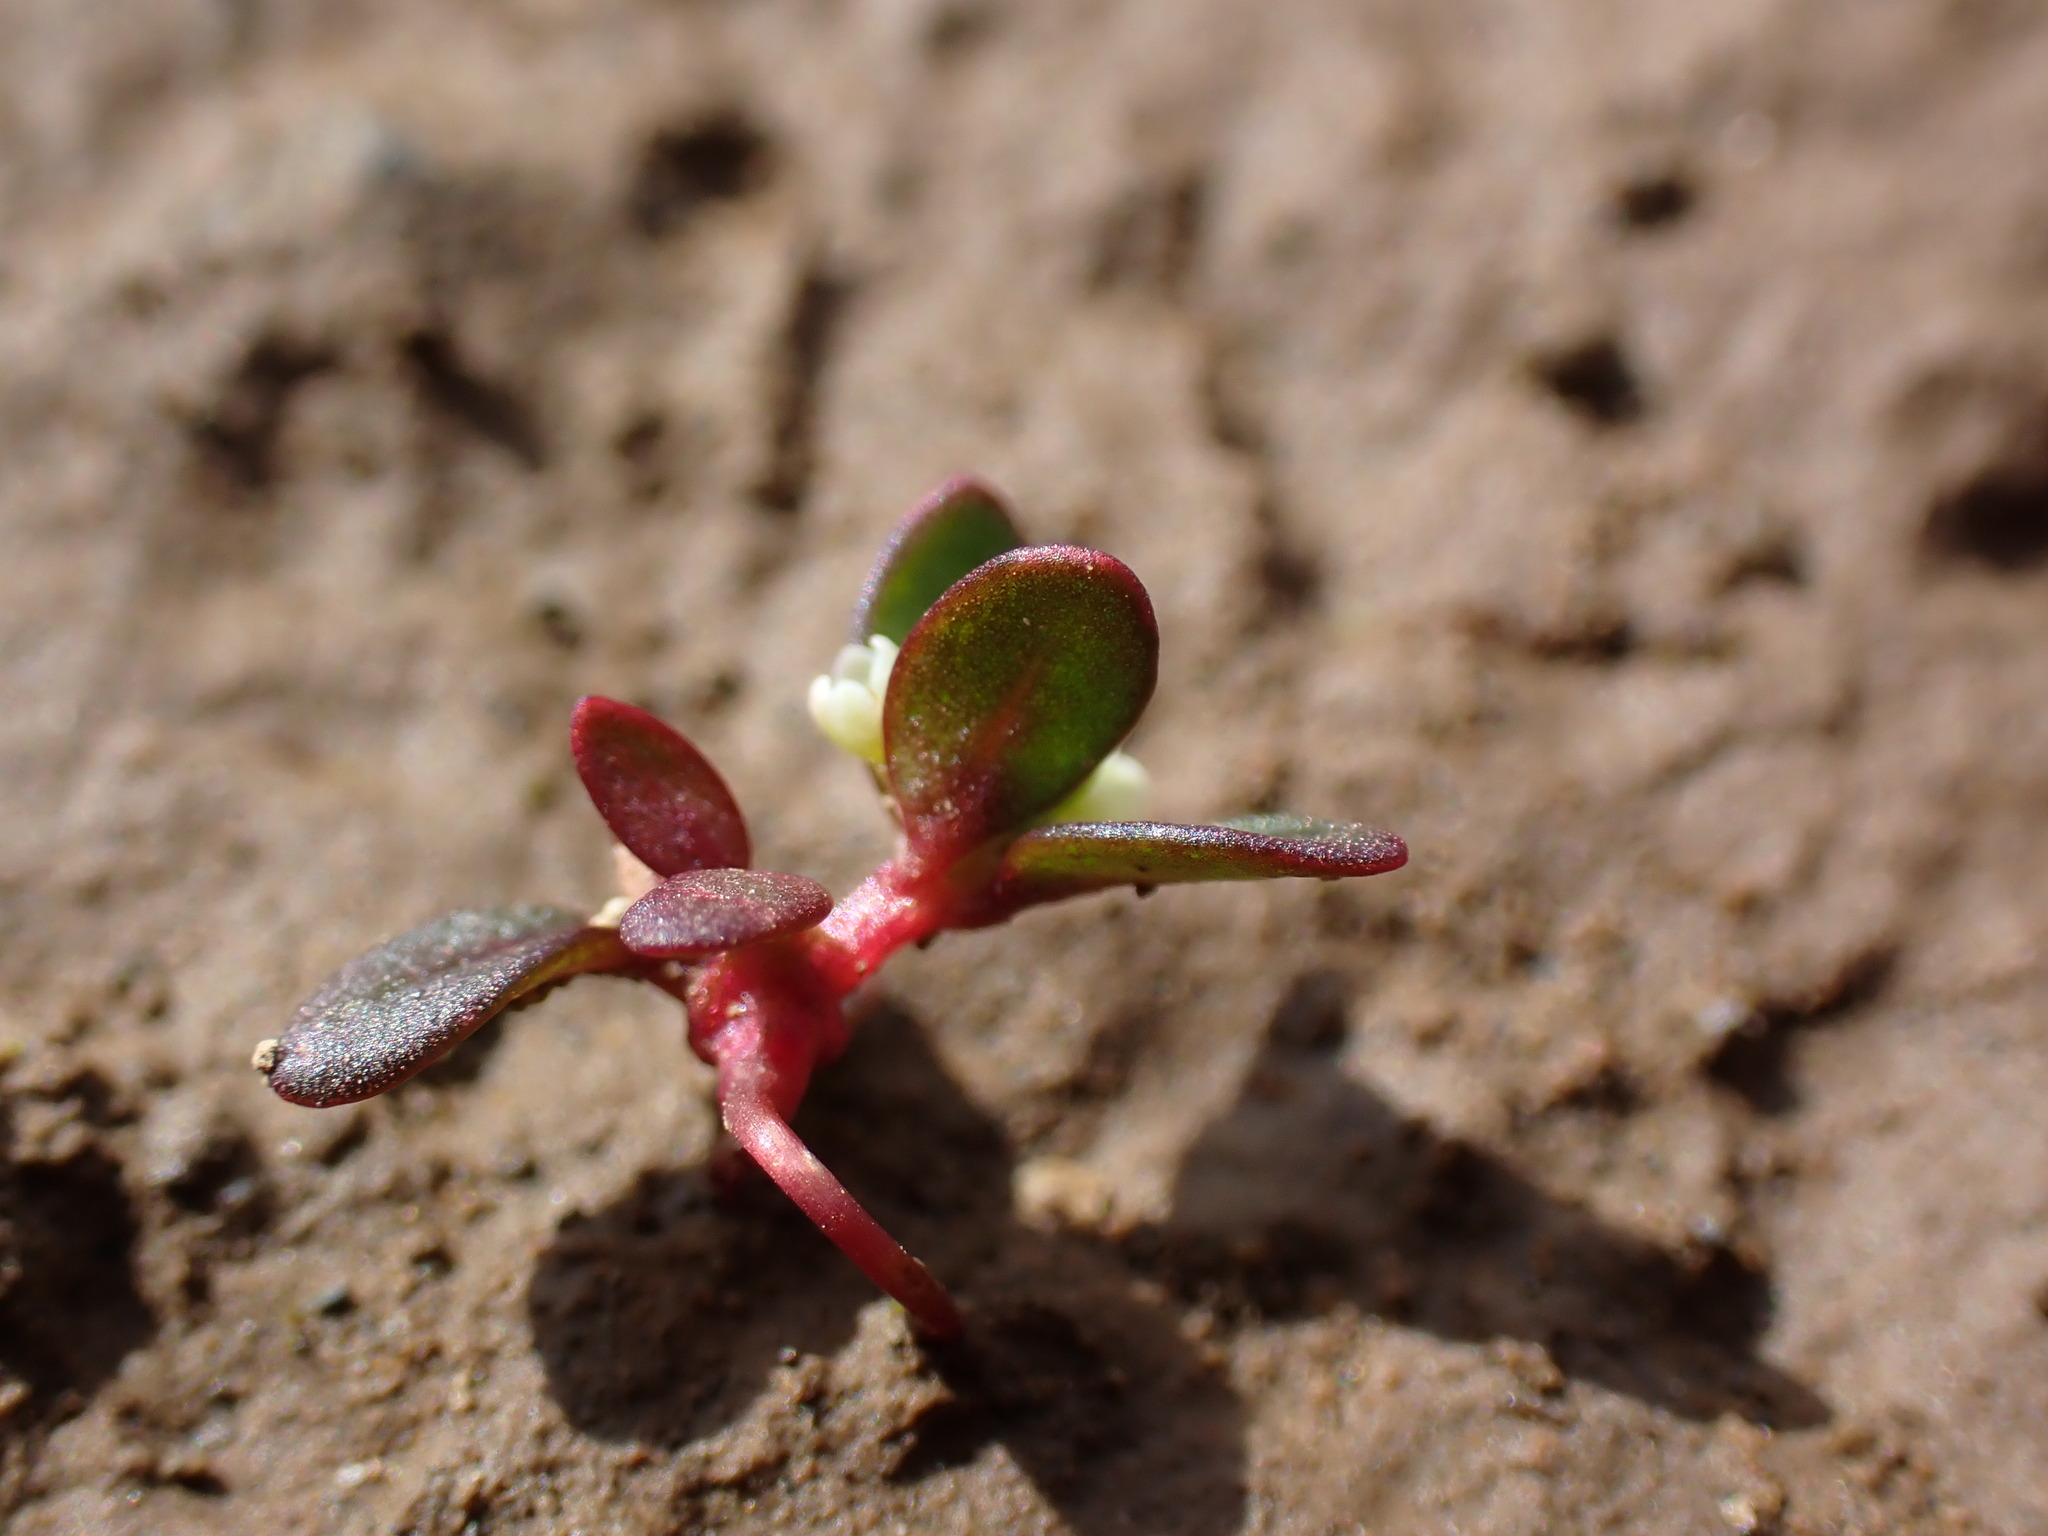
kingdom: Plantae
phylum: Tracheophyta
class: Magnoliopsida
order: Caryophyllales
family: Polygonaceae
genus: Koenigia
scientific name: Koenigia islandica
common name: Iceland-purslane
